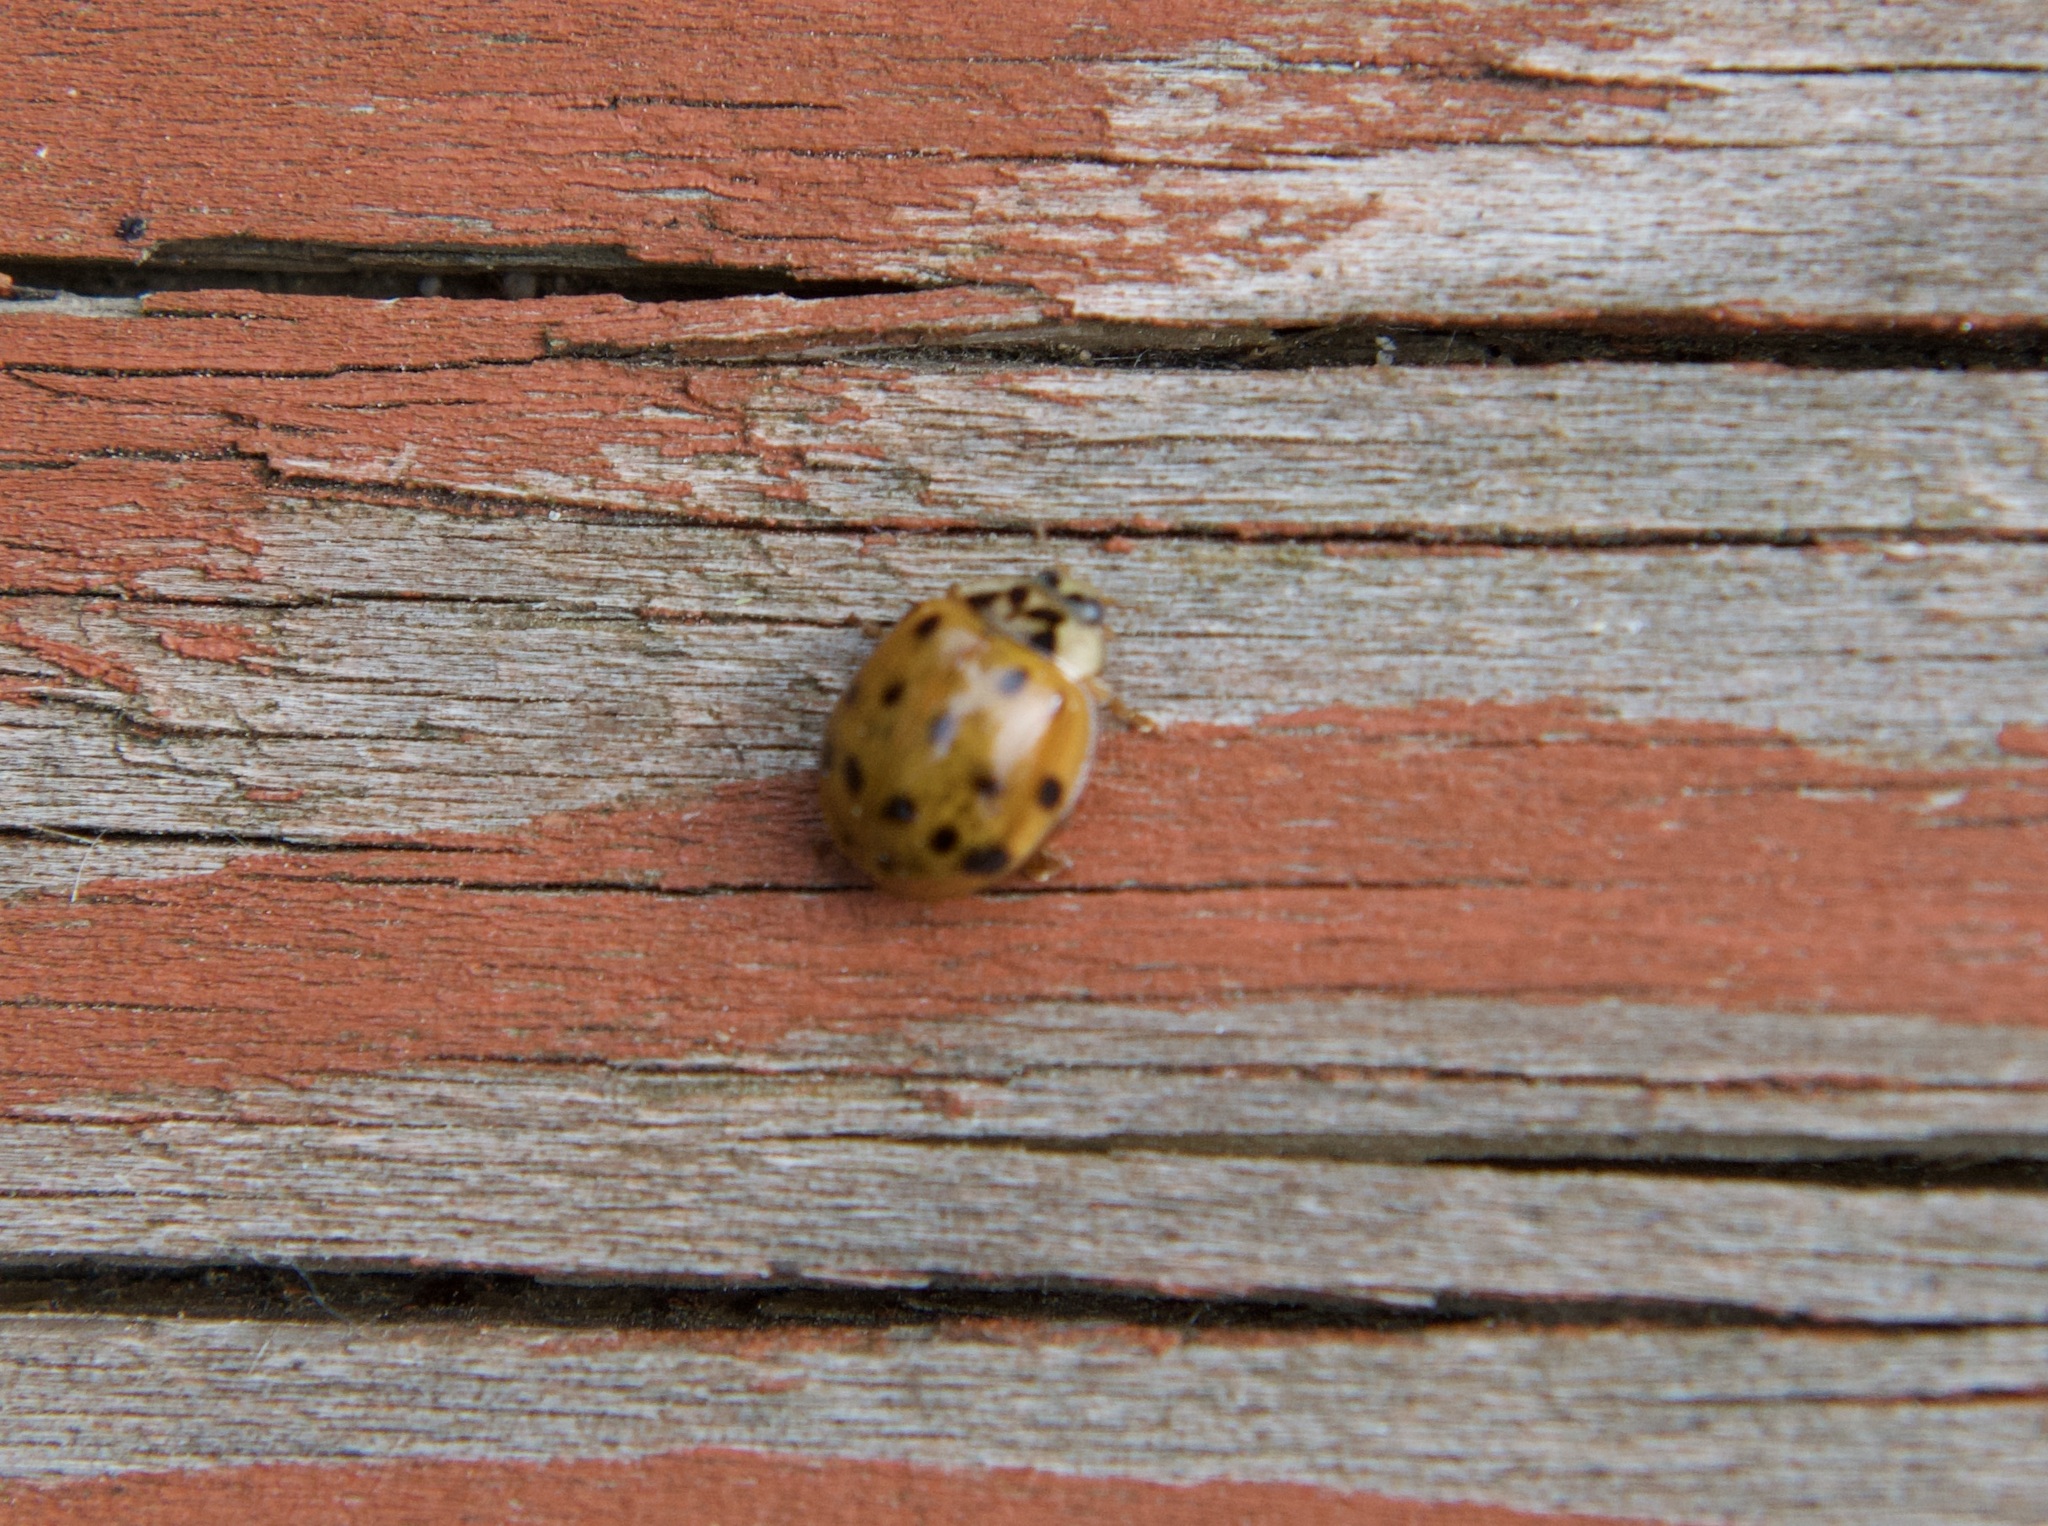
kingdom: Animalia
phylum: Arthropoda
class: Insecta
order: Coleoptera
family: Coccinellidae
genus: Harmonia
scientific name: Harmonia axyridis
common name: Harlequin ladybird
